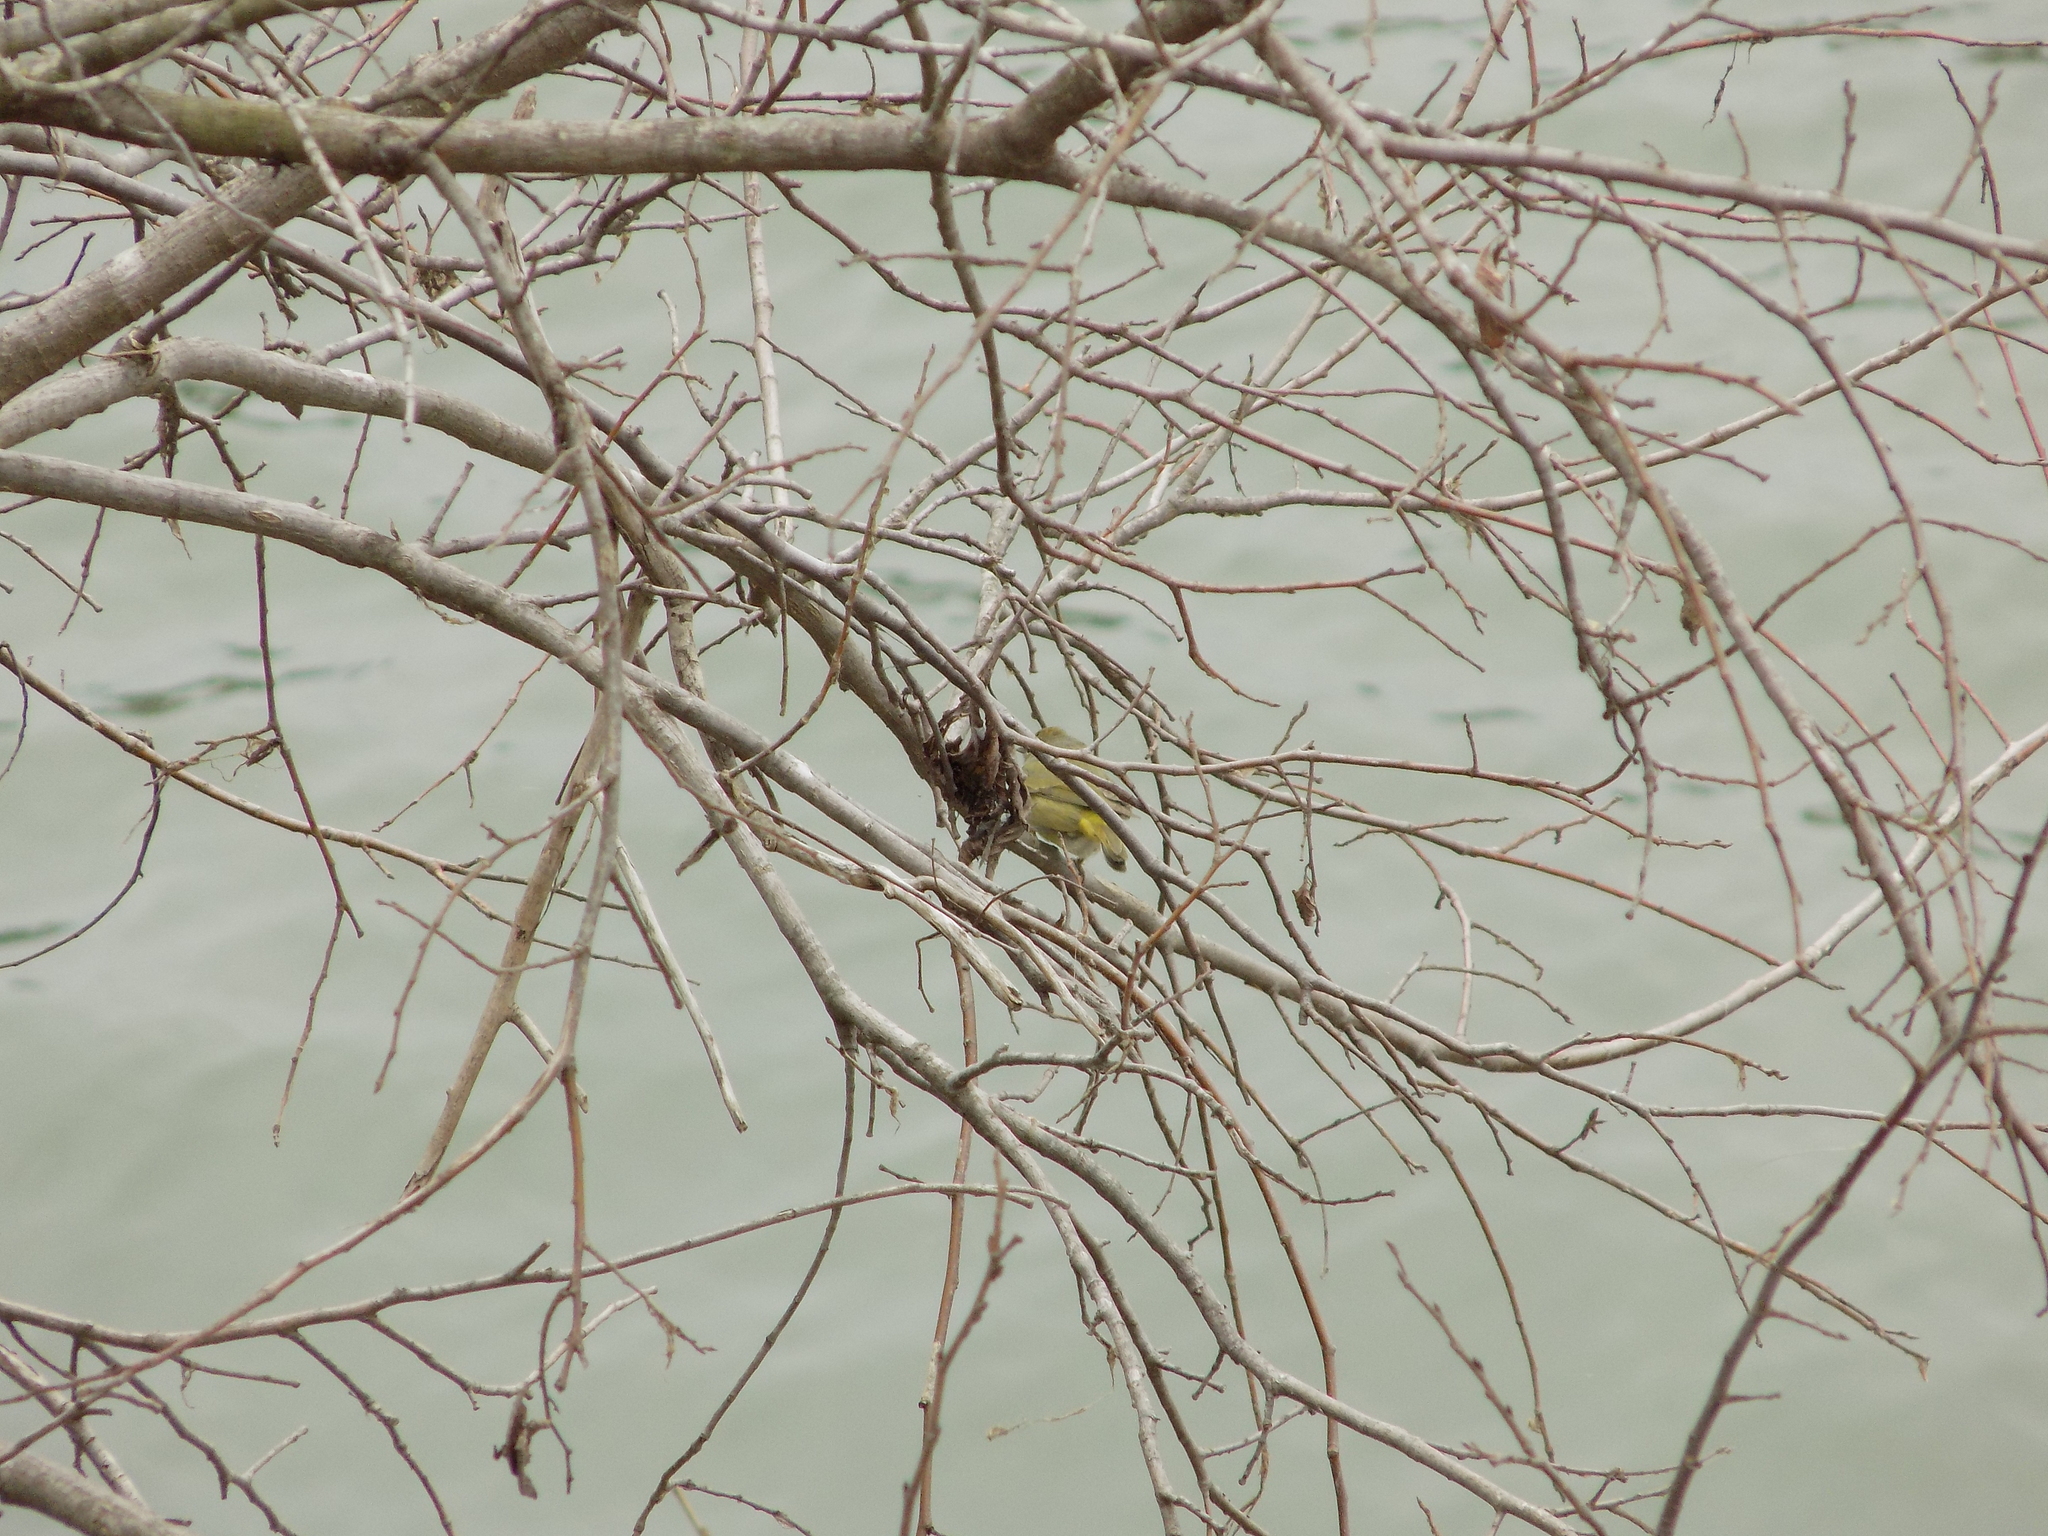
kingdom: Animalia
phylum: Chordata
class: Aves
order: Passeriformes
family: Parulidae
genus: Leiothlypis
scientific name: Leiothlypis celata
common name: Orange-crowned warbler
